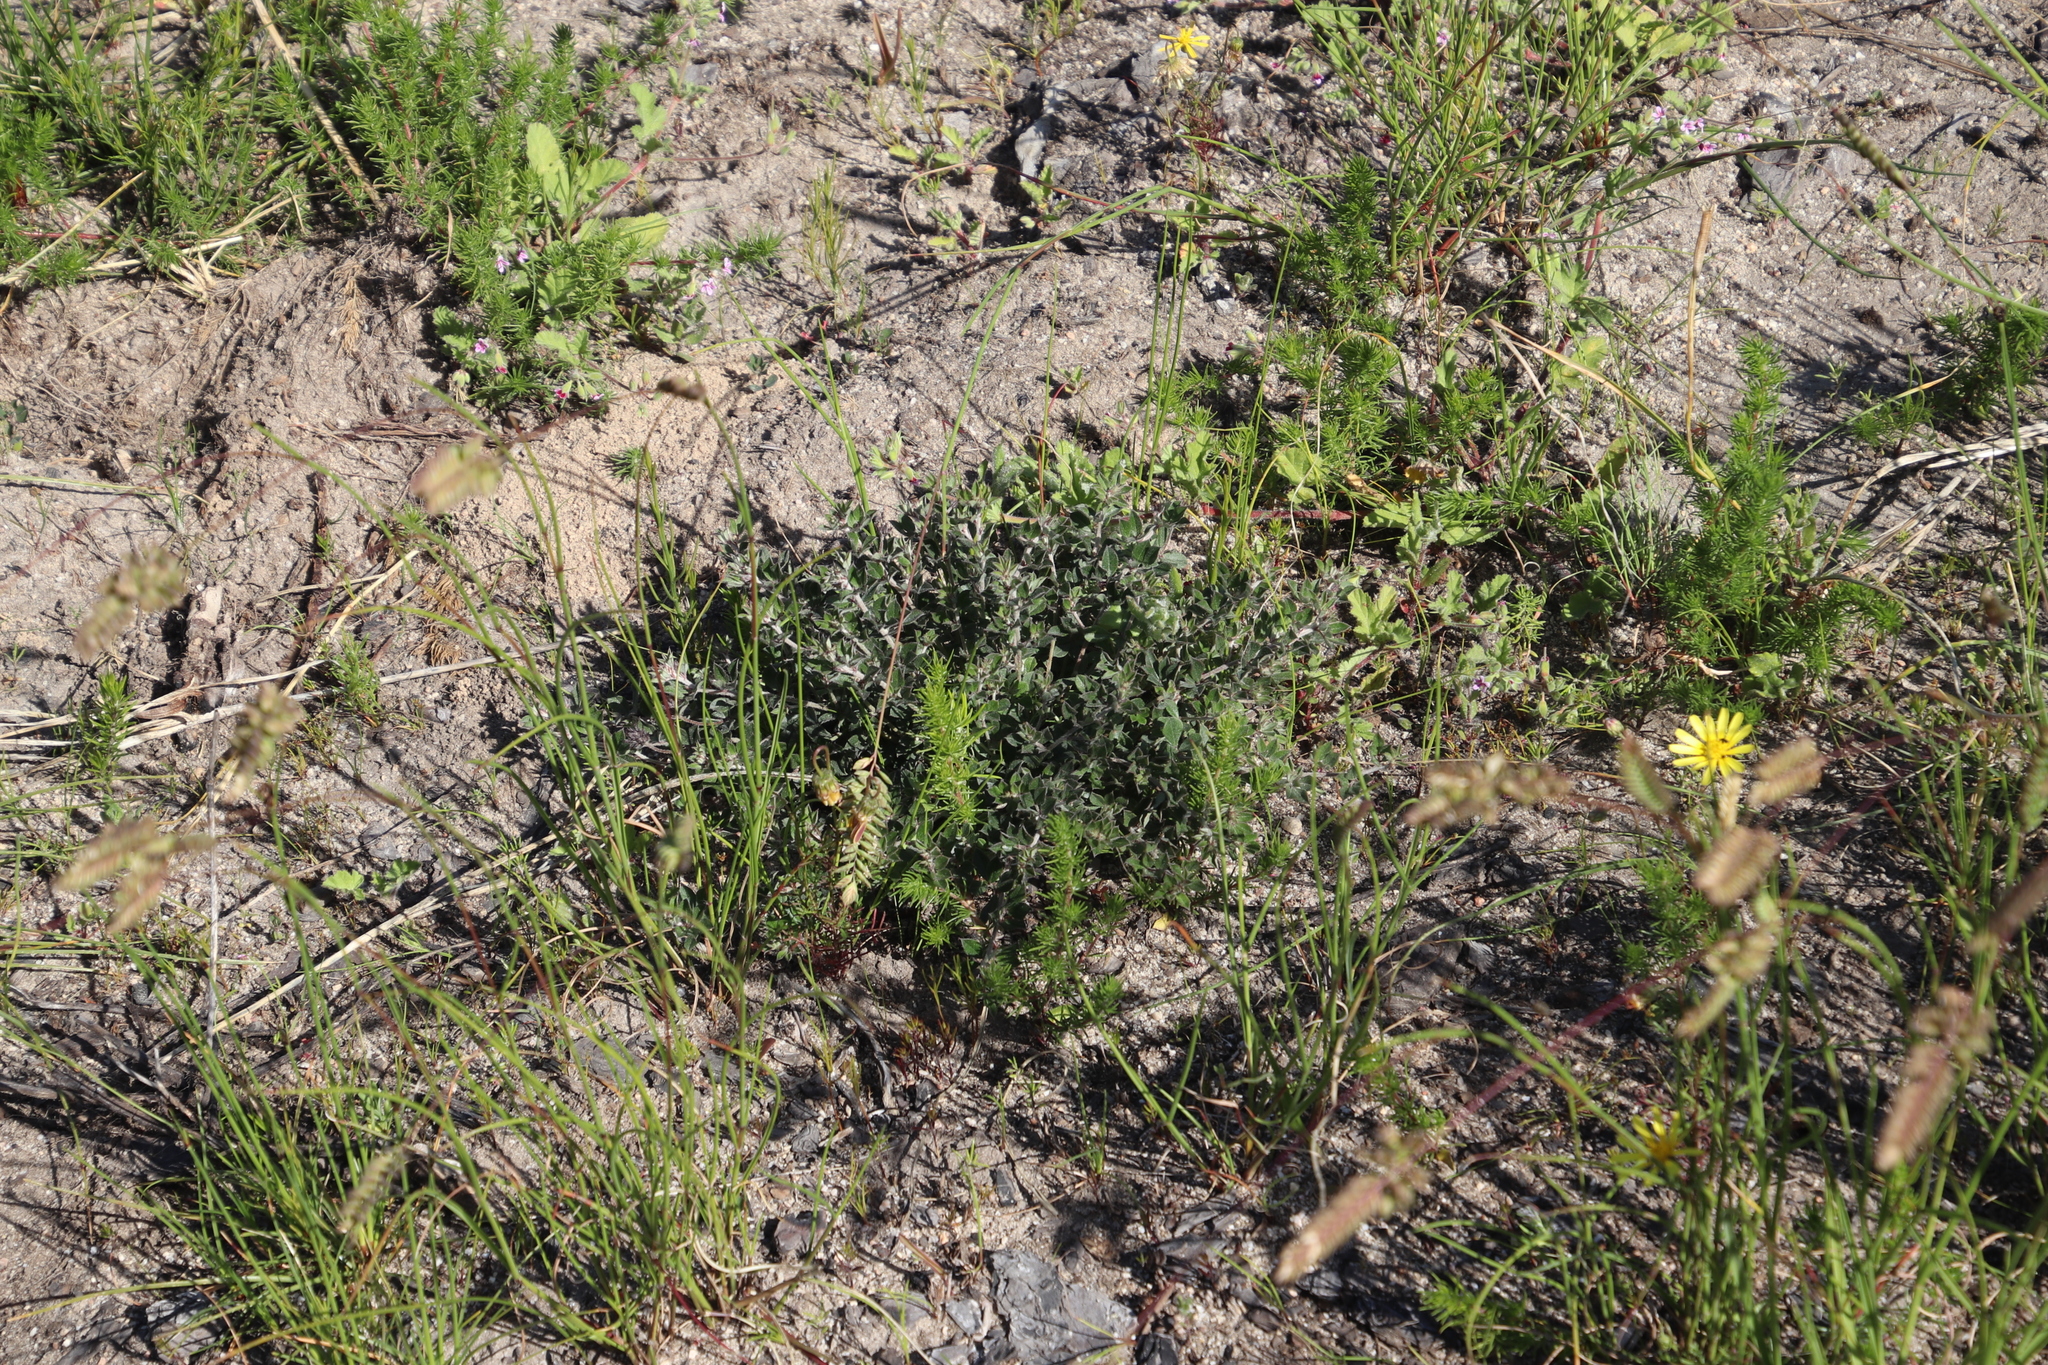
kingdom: Plantae
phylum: Tracheophyta
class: Magnoliopsida
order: Fabales
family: Fabaceae
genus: Indigofera
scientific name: Indigofera mauritanica
